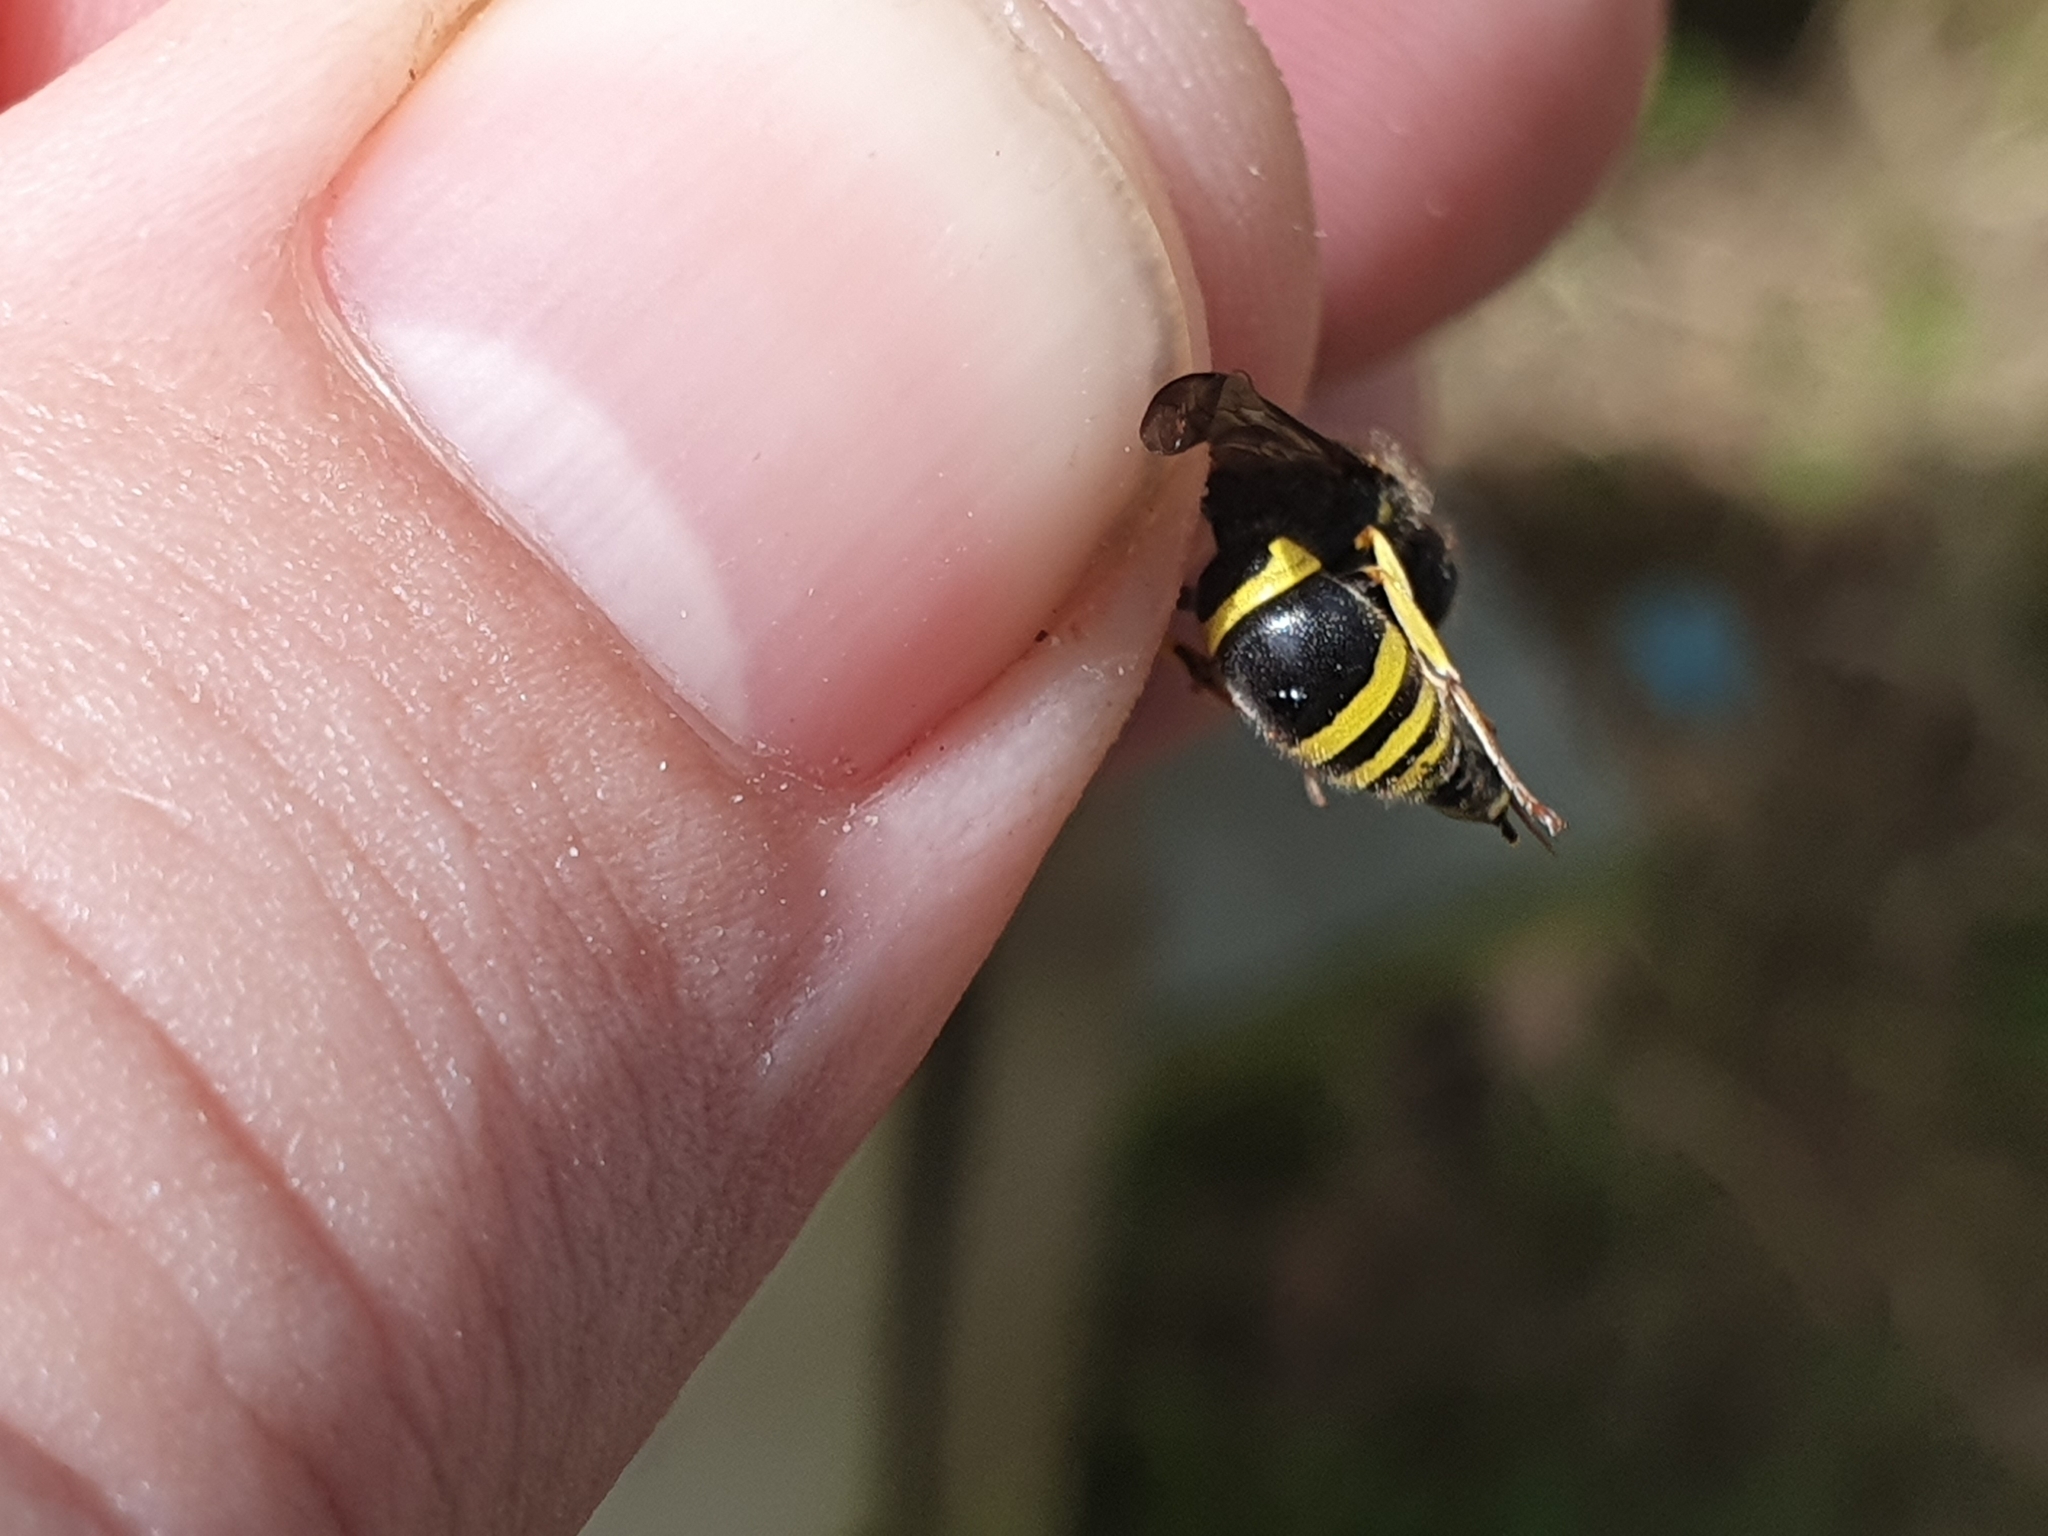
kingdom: Animalia
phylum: Arthropoda
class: Insecta
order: Hymenoptera
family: Vespidae
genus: Ancistrocerus
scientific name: Ancistrocerus gazella
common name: European tube wasp
